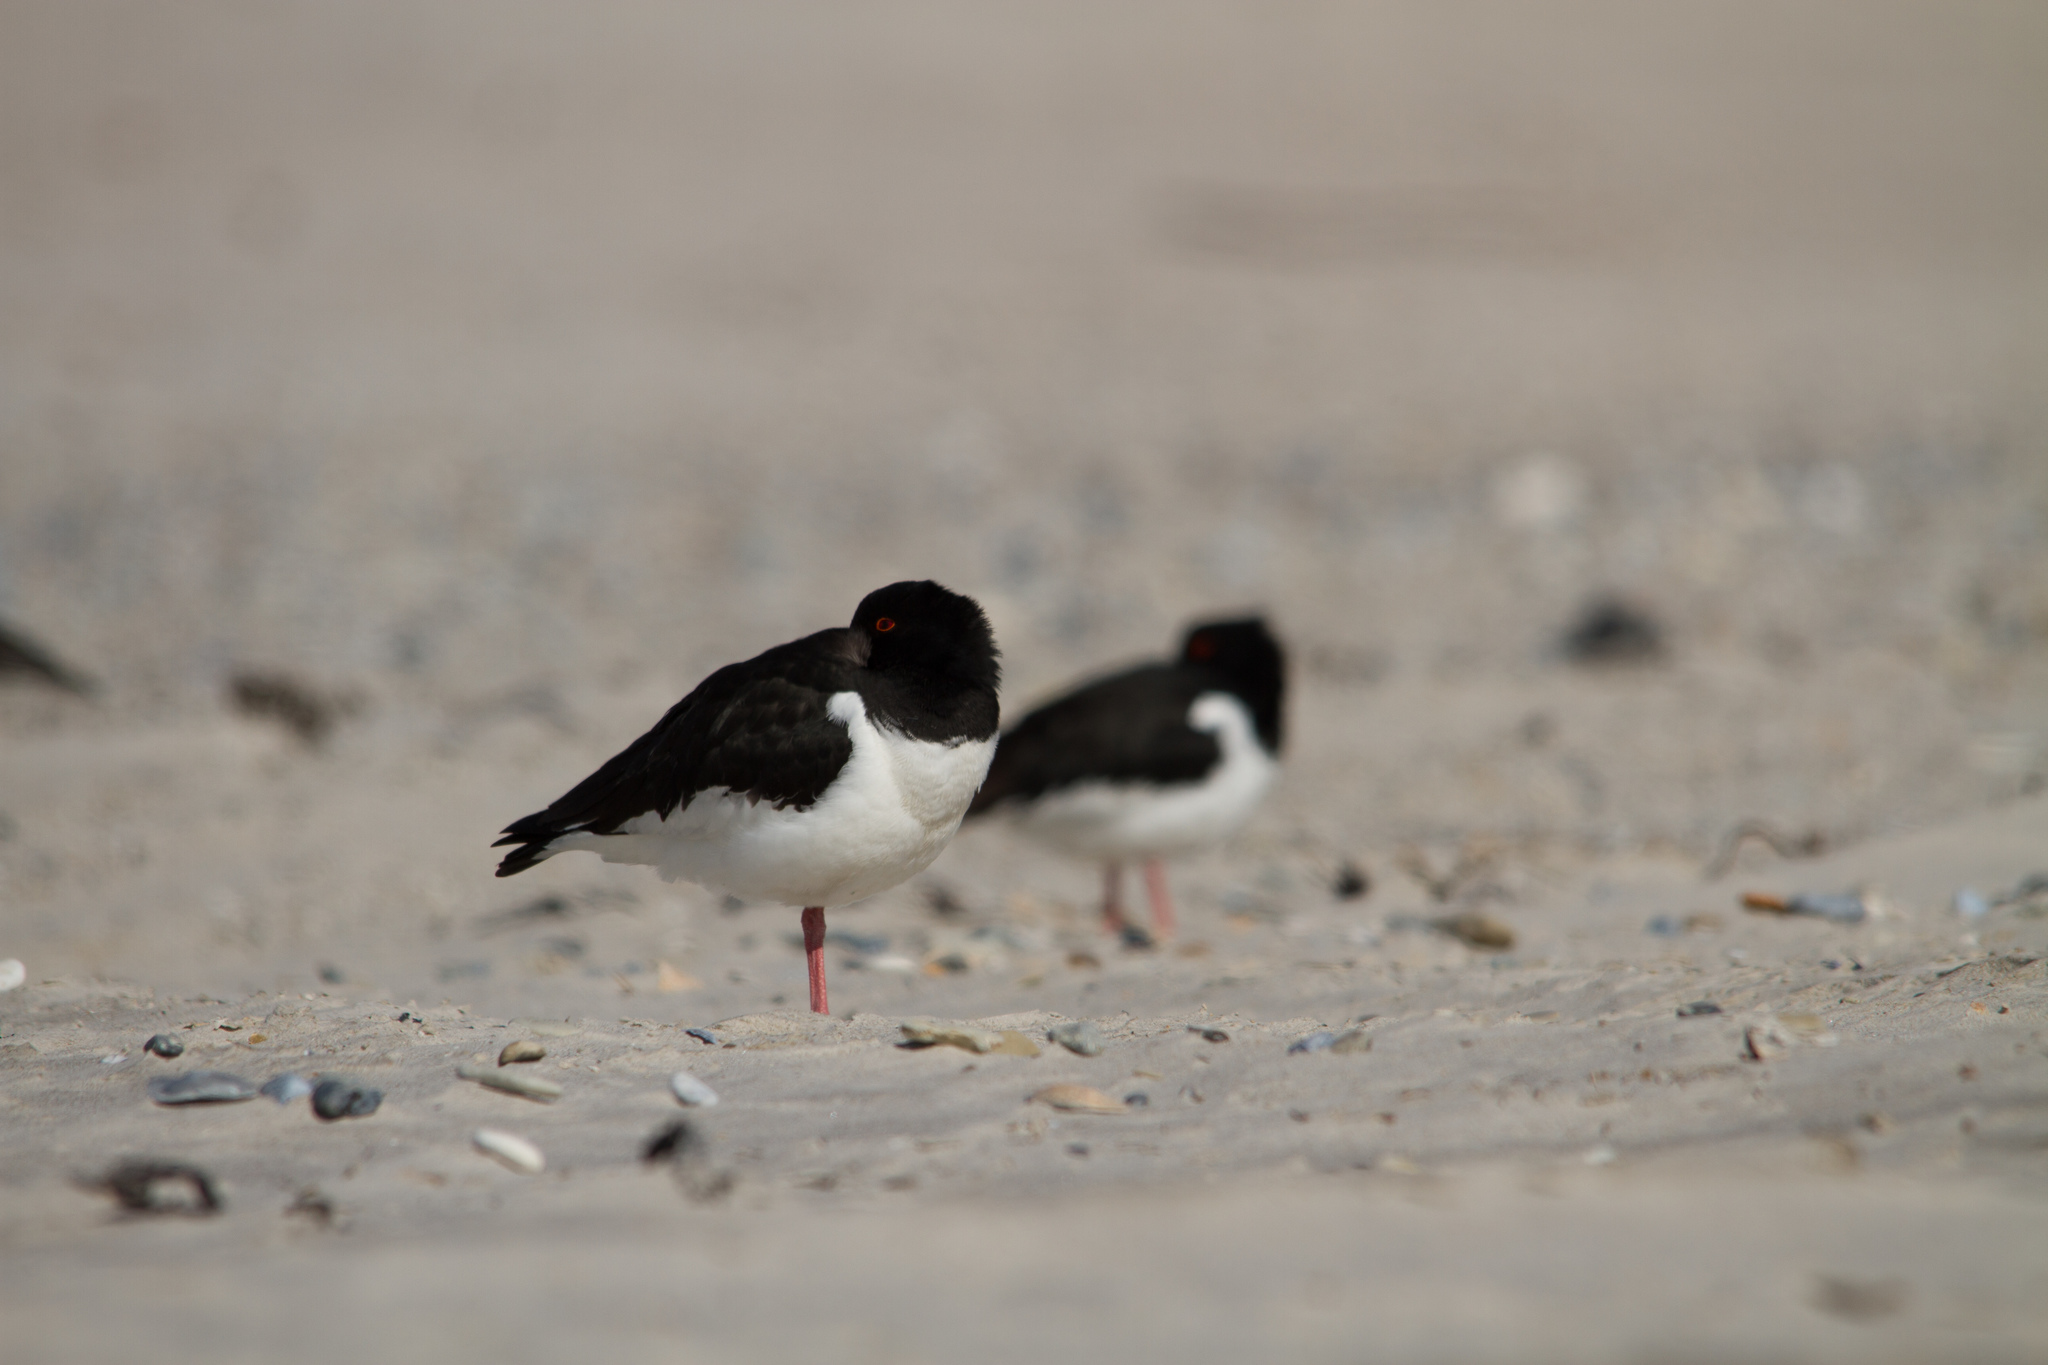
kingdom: Animalia
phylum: Chordata
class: Aves
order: Charadriiformes
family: Haematopodidae
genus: Haematopus
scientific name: Haematopus ostralegus
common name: Eurasian oystercatcher
